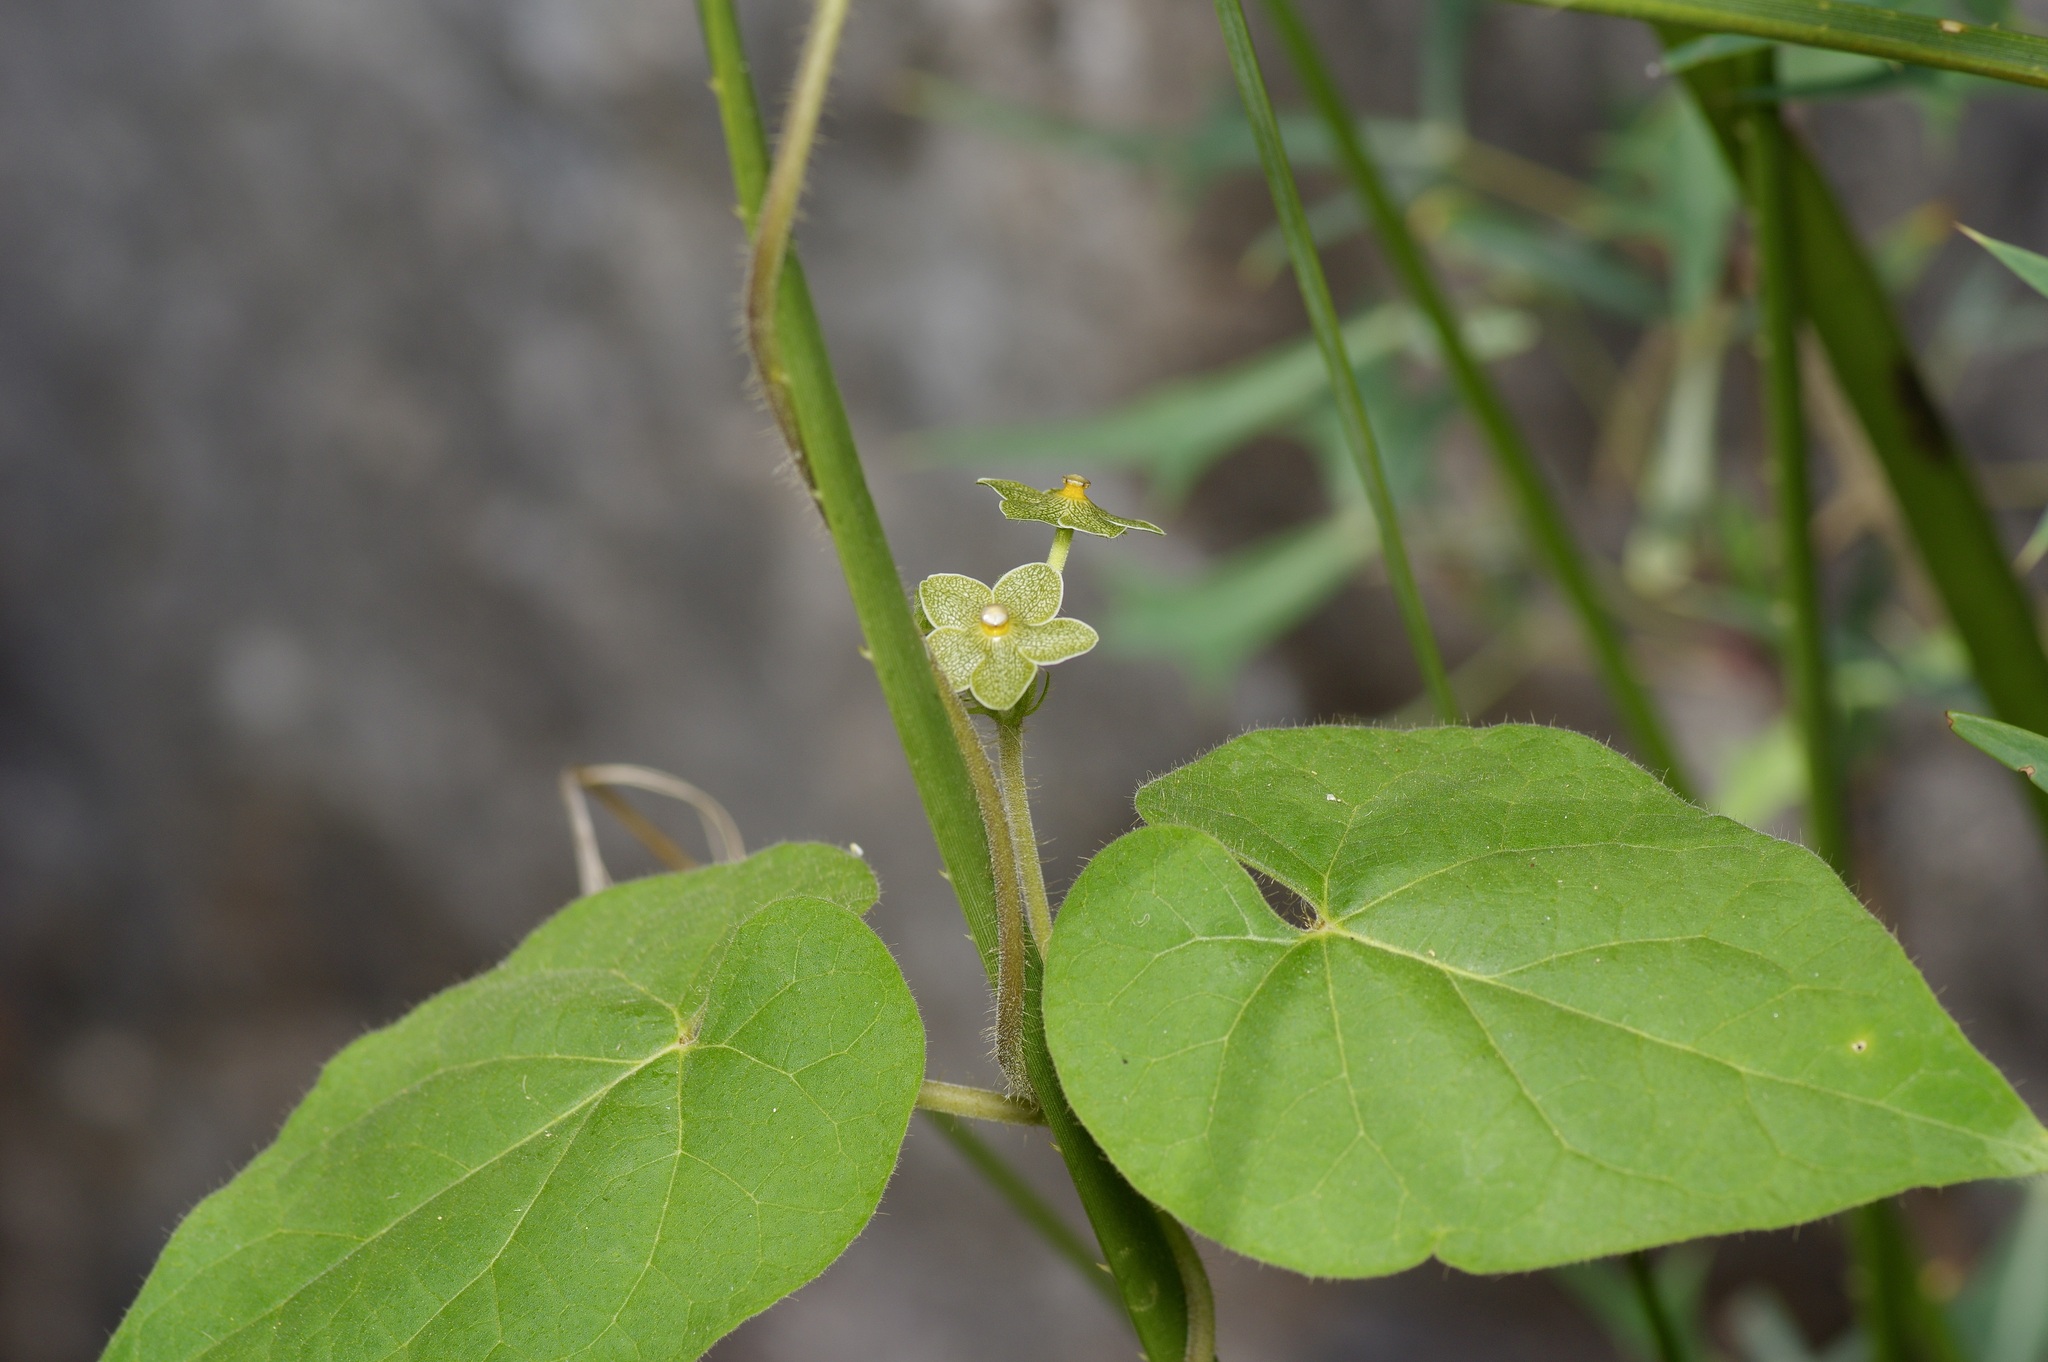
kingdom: Plantae
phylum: Tracheophyta
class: Magnoliopsida
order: Gentianales
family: Apocynaceae
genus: Dictyanthus
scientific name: Dictyanthus reticulatus
